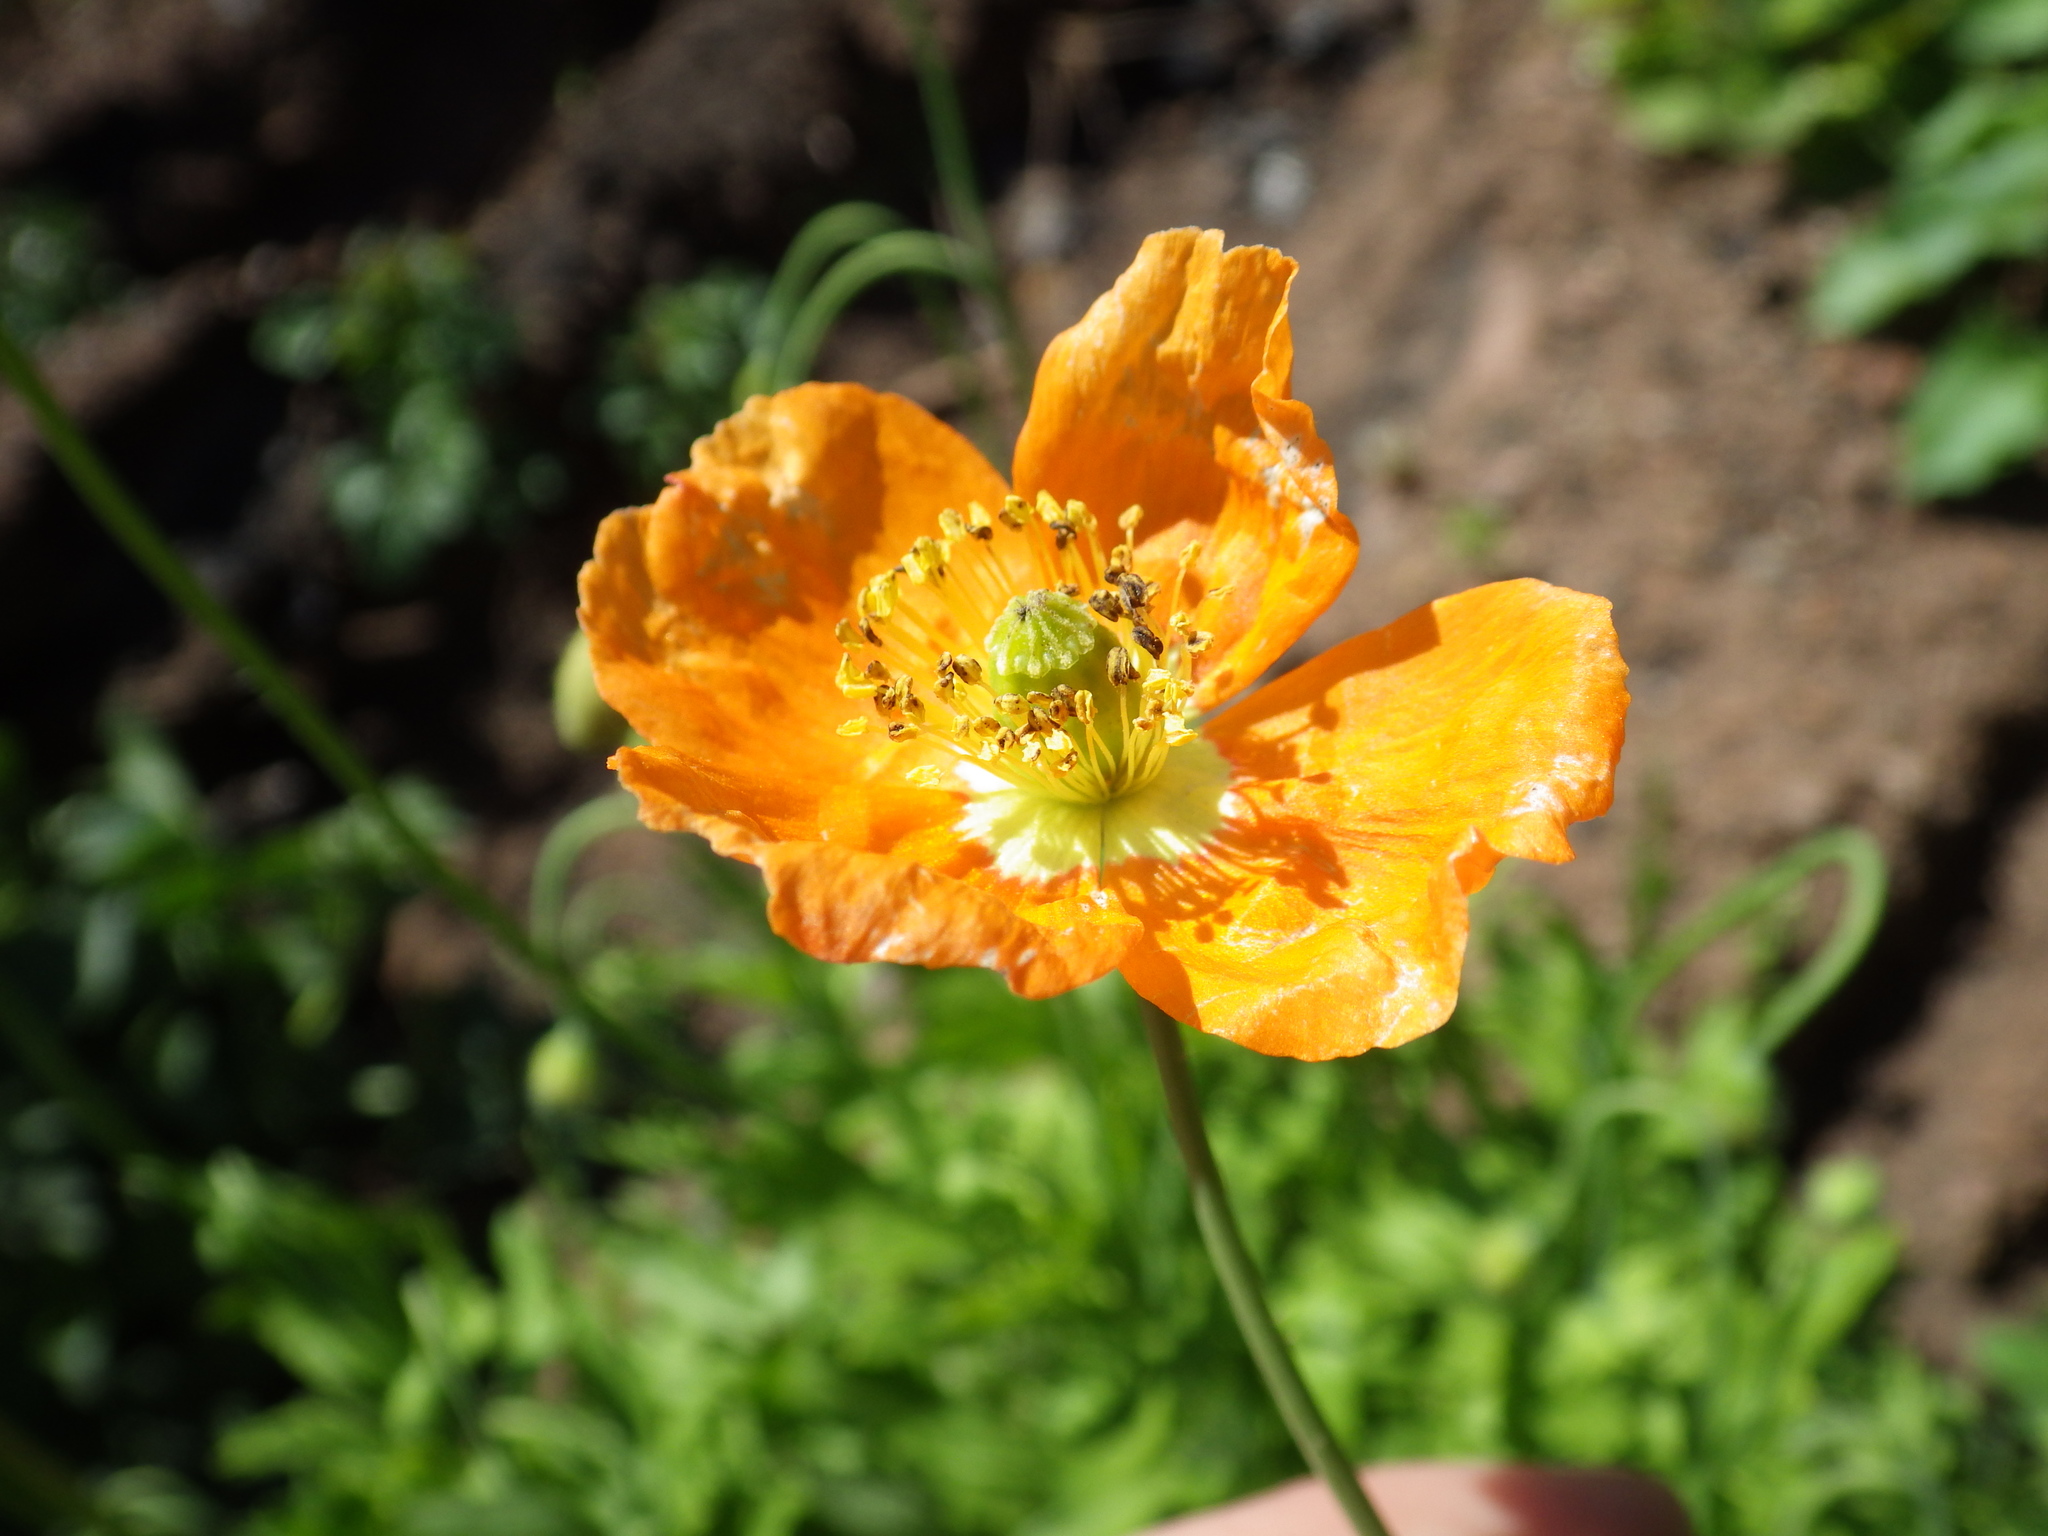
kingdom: Plantae
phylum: Tracheophyta
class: Magnoliopsida
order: Ranunculales
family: Papaveraceae
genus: Papaver
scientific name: Papaver californicum
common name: Fire poppy
